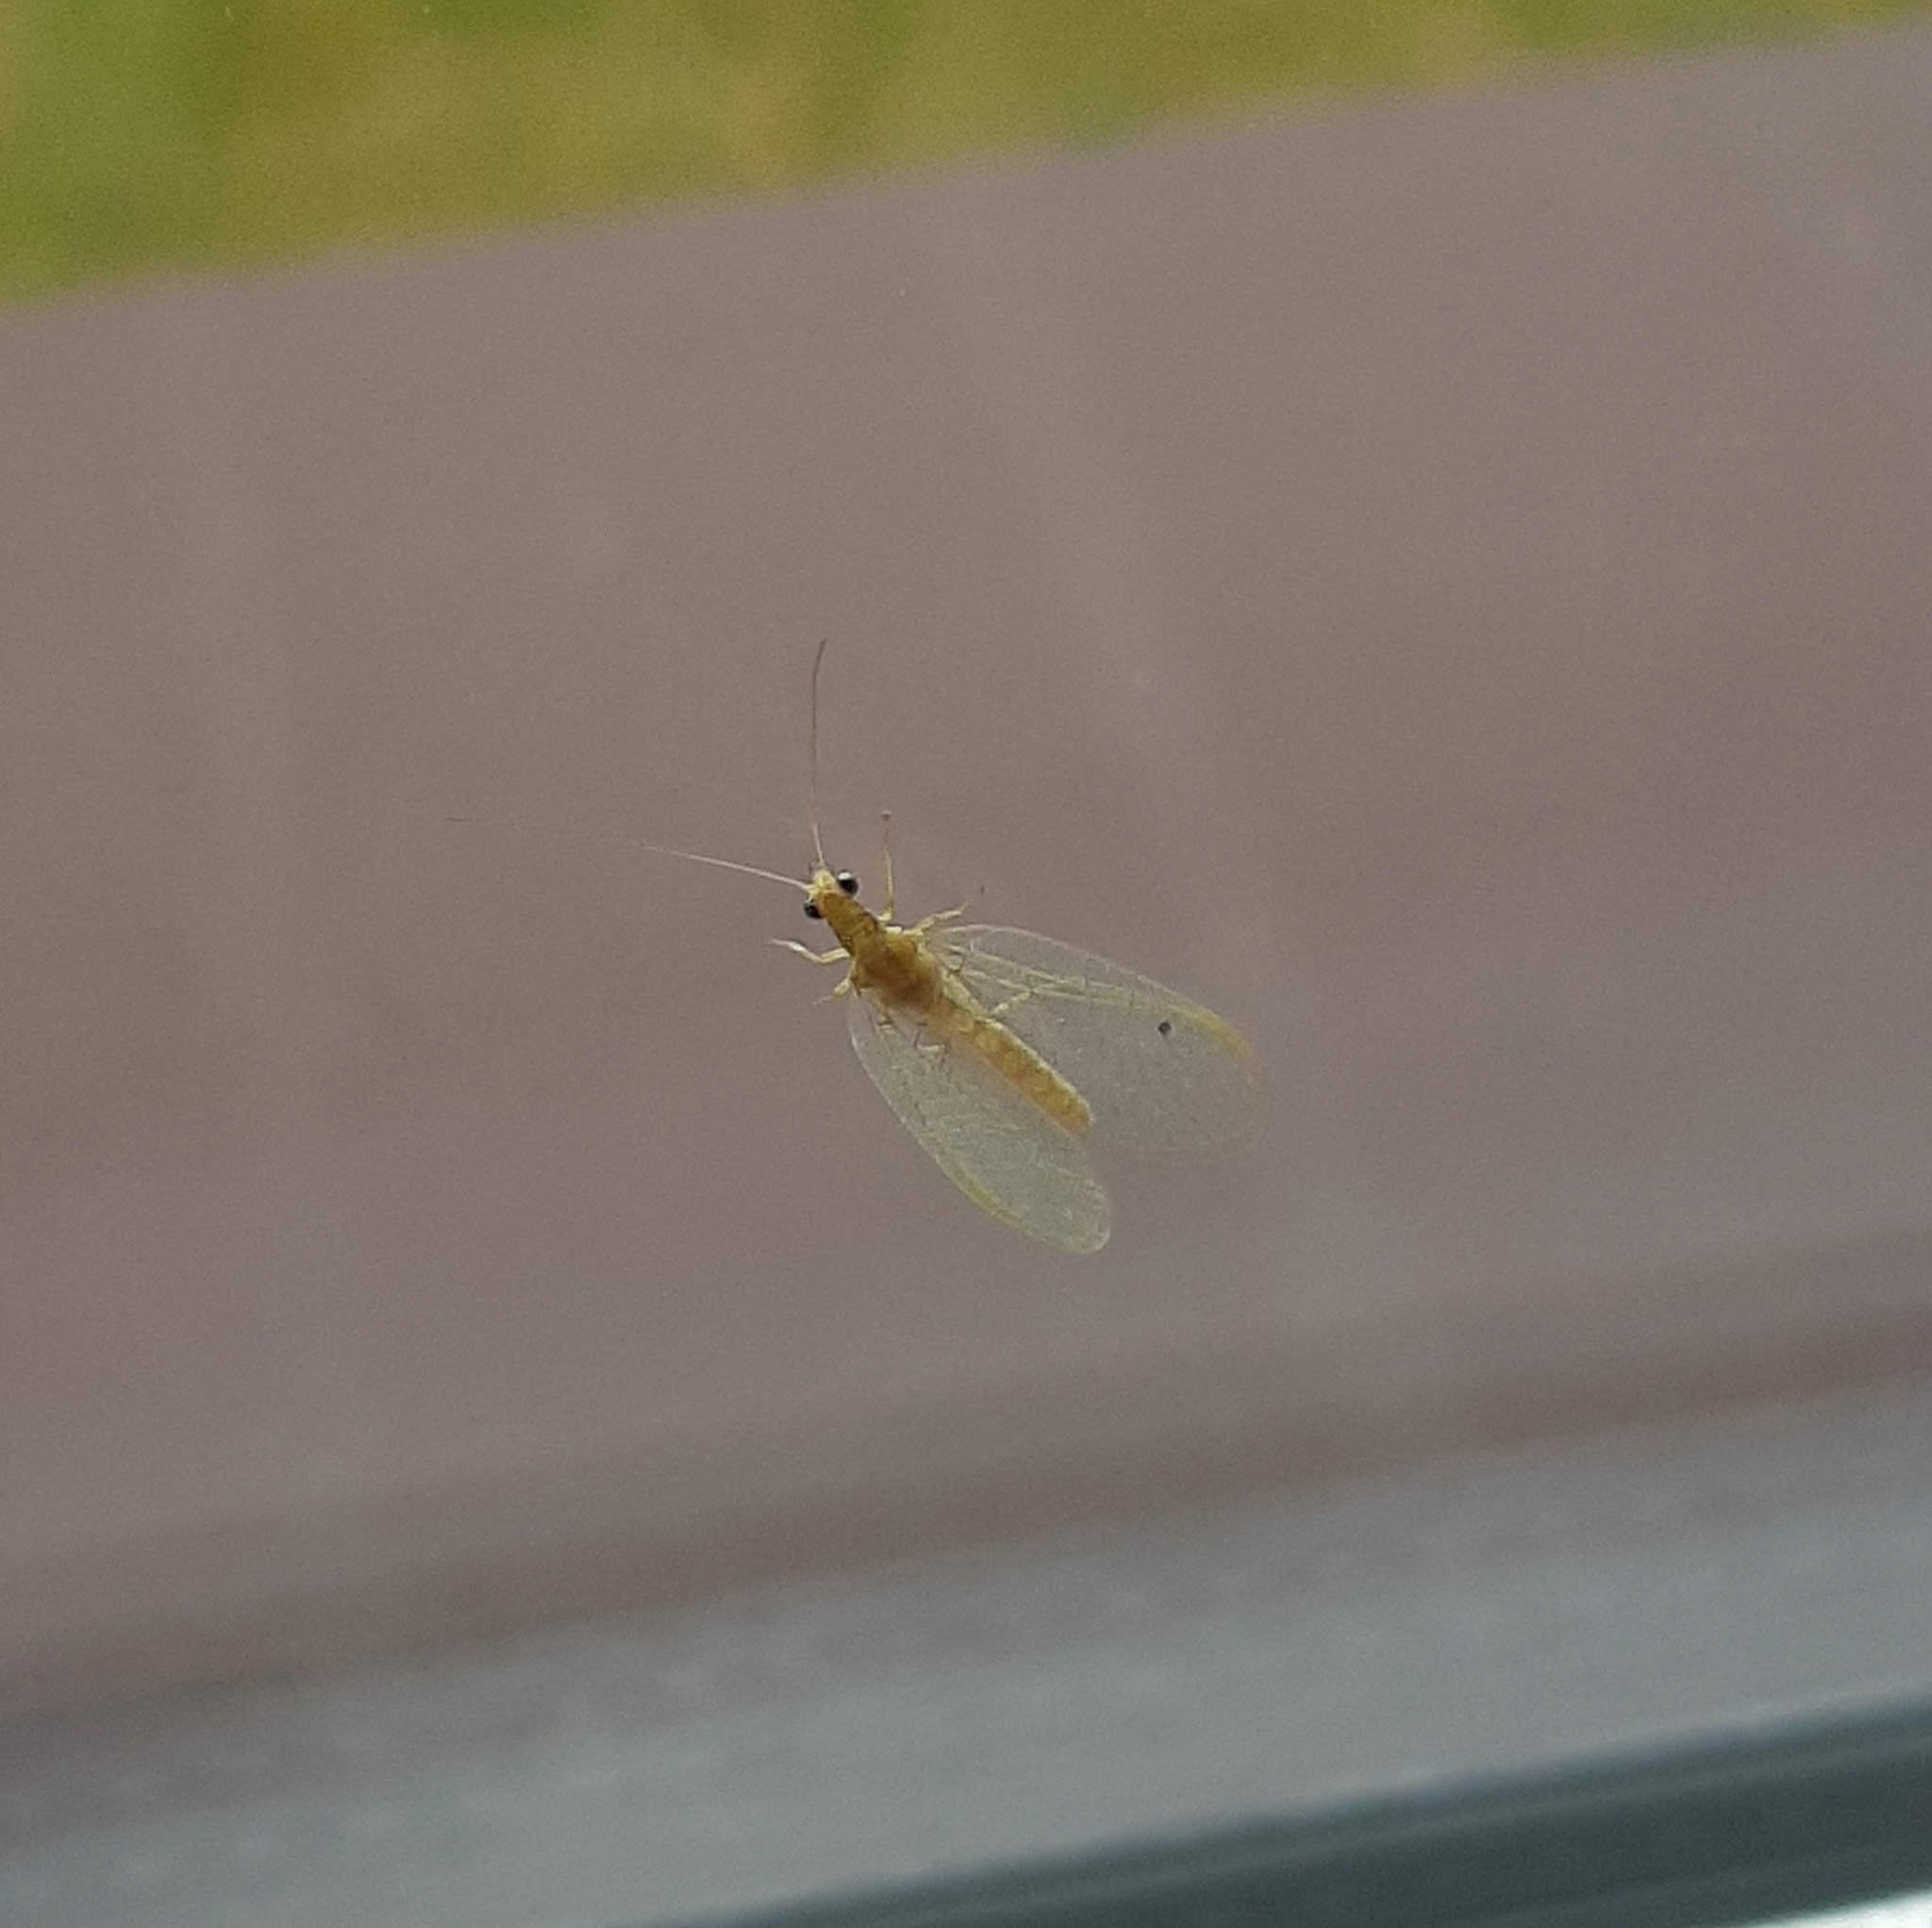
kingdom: Animalia
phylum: Arthropoda
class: Insecta
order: Neuroptera
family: Chrysopidae
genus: Chrysoperla
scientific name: Chrysoperla
